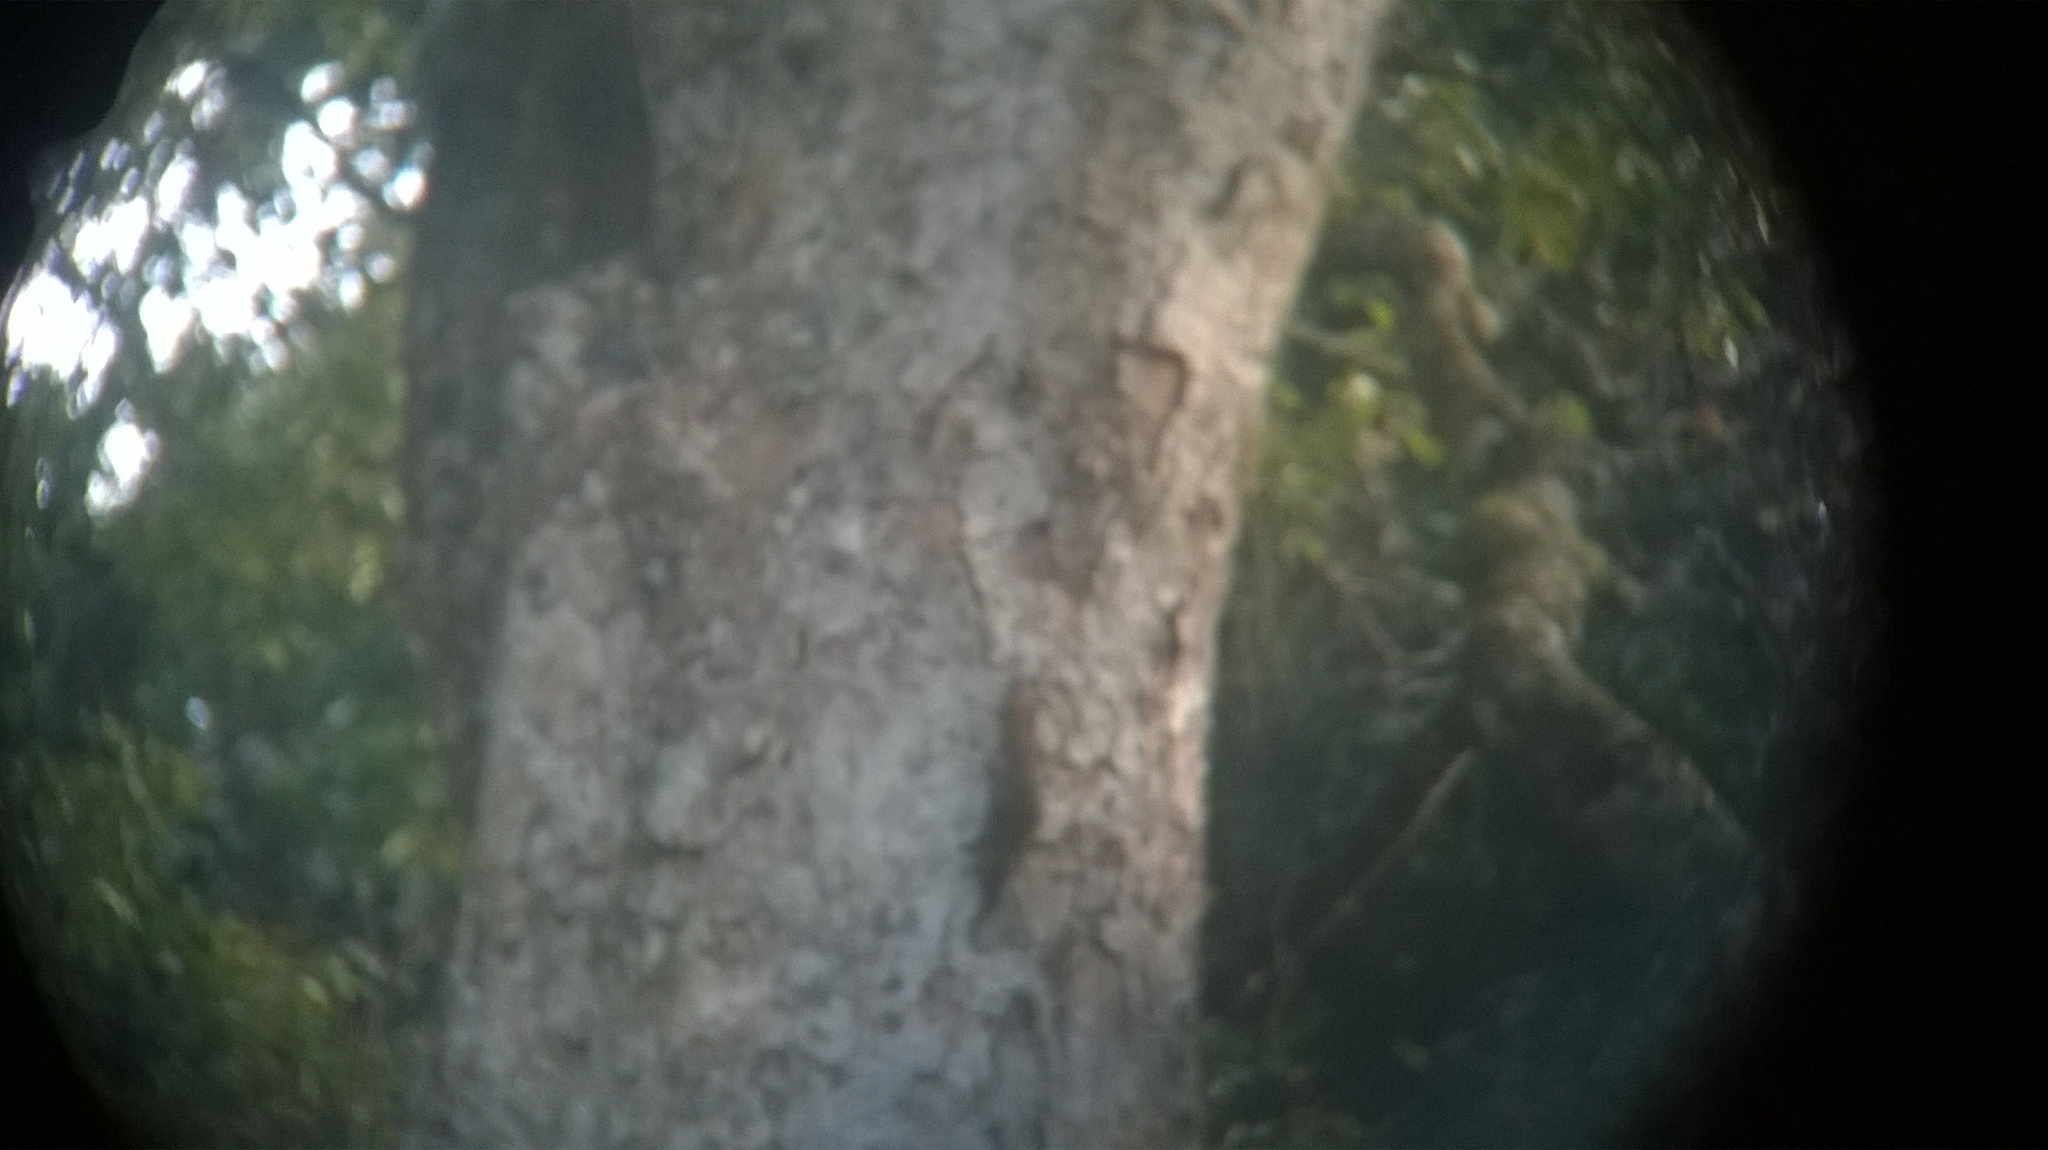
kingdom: Animalia
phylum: Chordata
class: Mammalia
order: Rodentia
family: Sciuridae
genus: Funambulus
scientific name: Funambulus sublineatus
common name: Dusky palm squirrel
